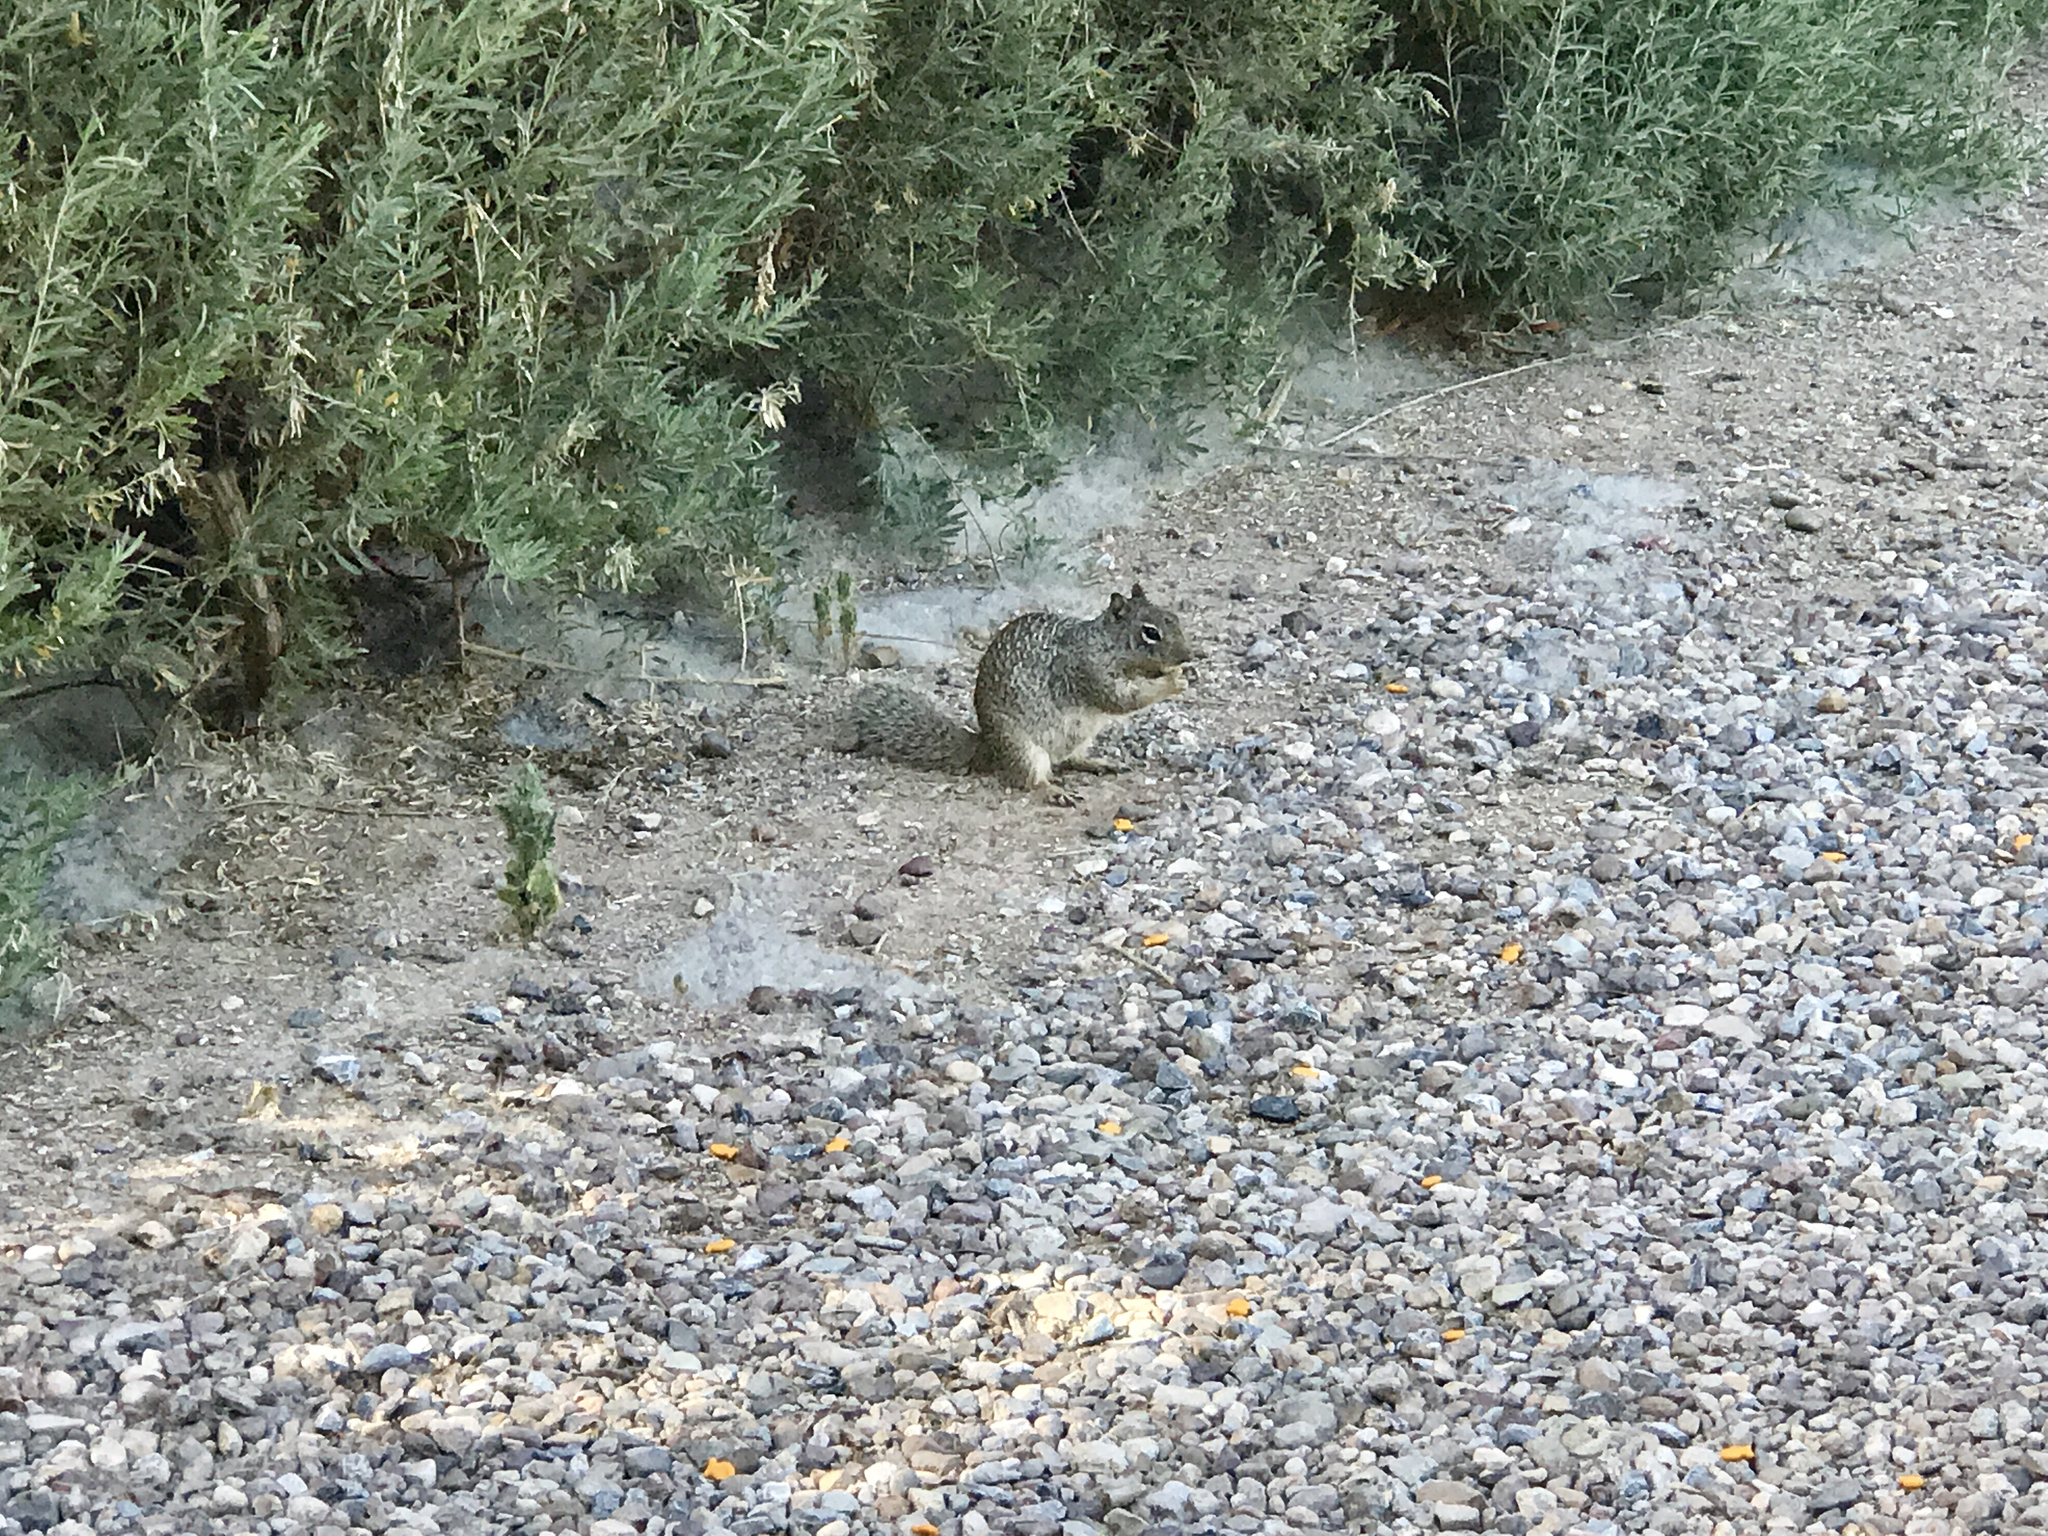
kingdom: Animalia
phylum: Chordata
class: Mammalia
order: Rodentia
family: Sciuridae
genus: Otospermophilus
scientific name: Otospermophilus variegatus
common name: Rock squirrel
